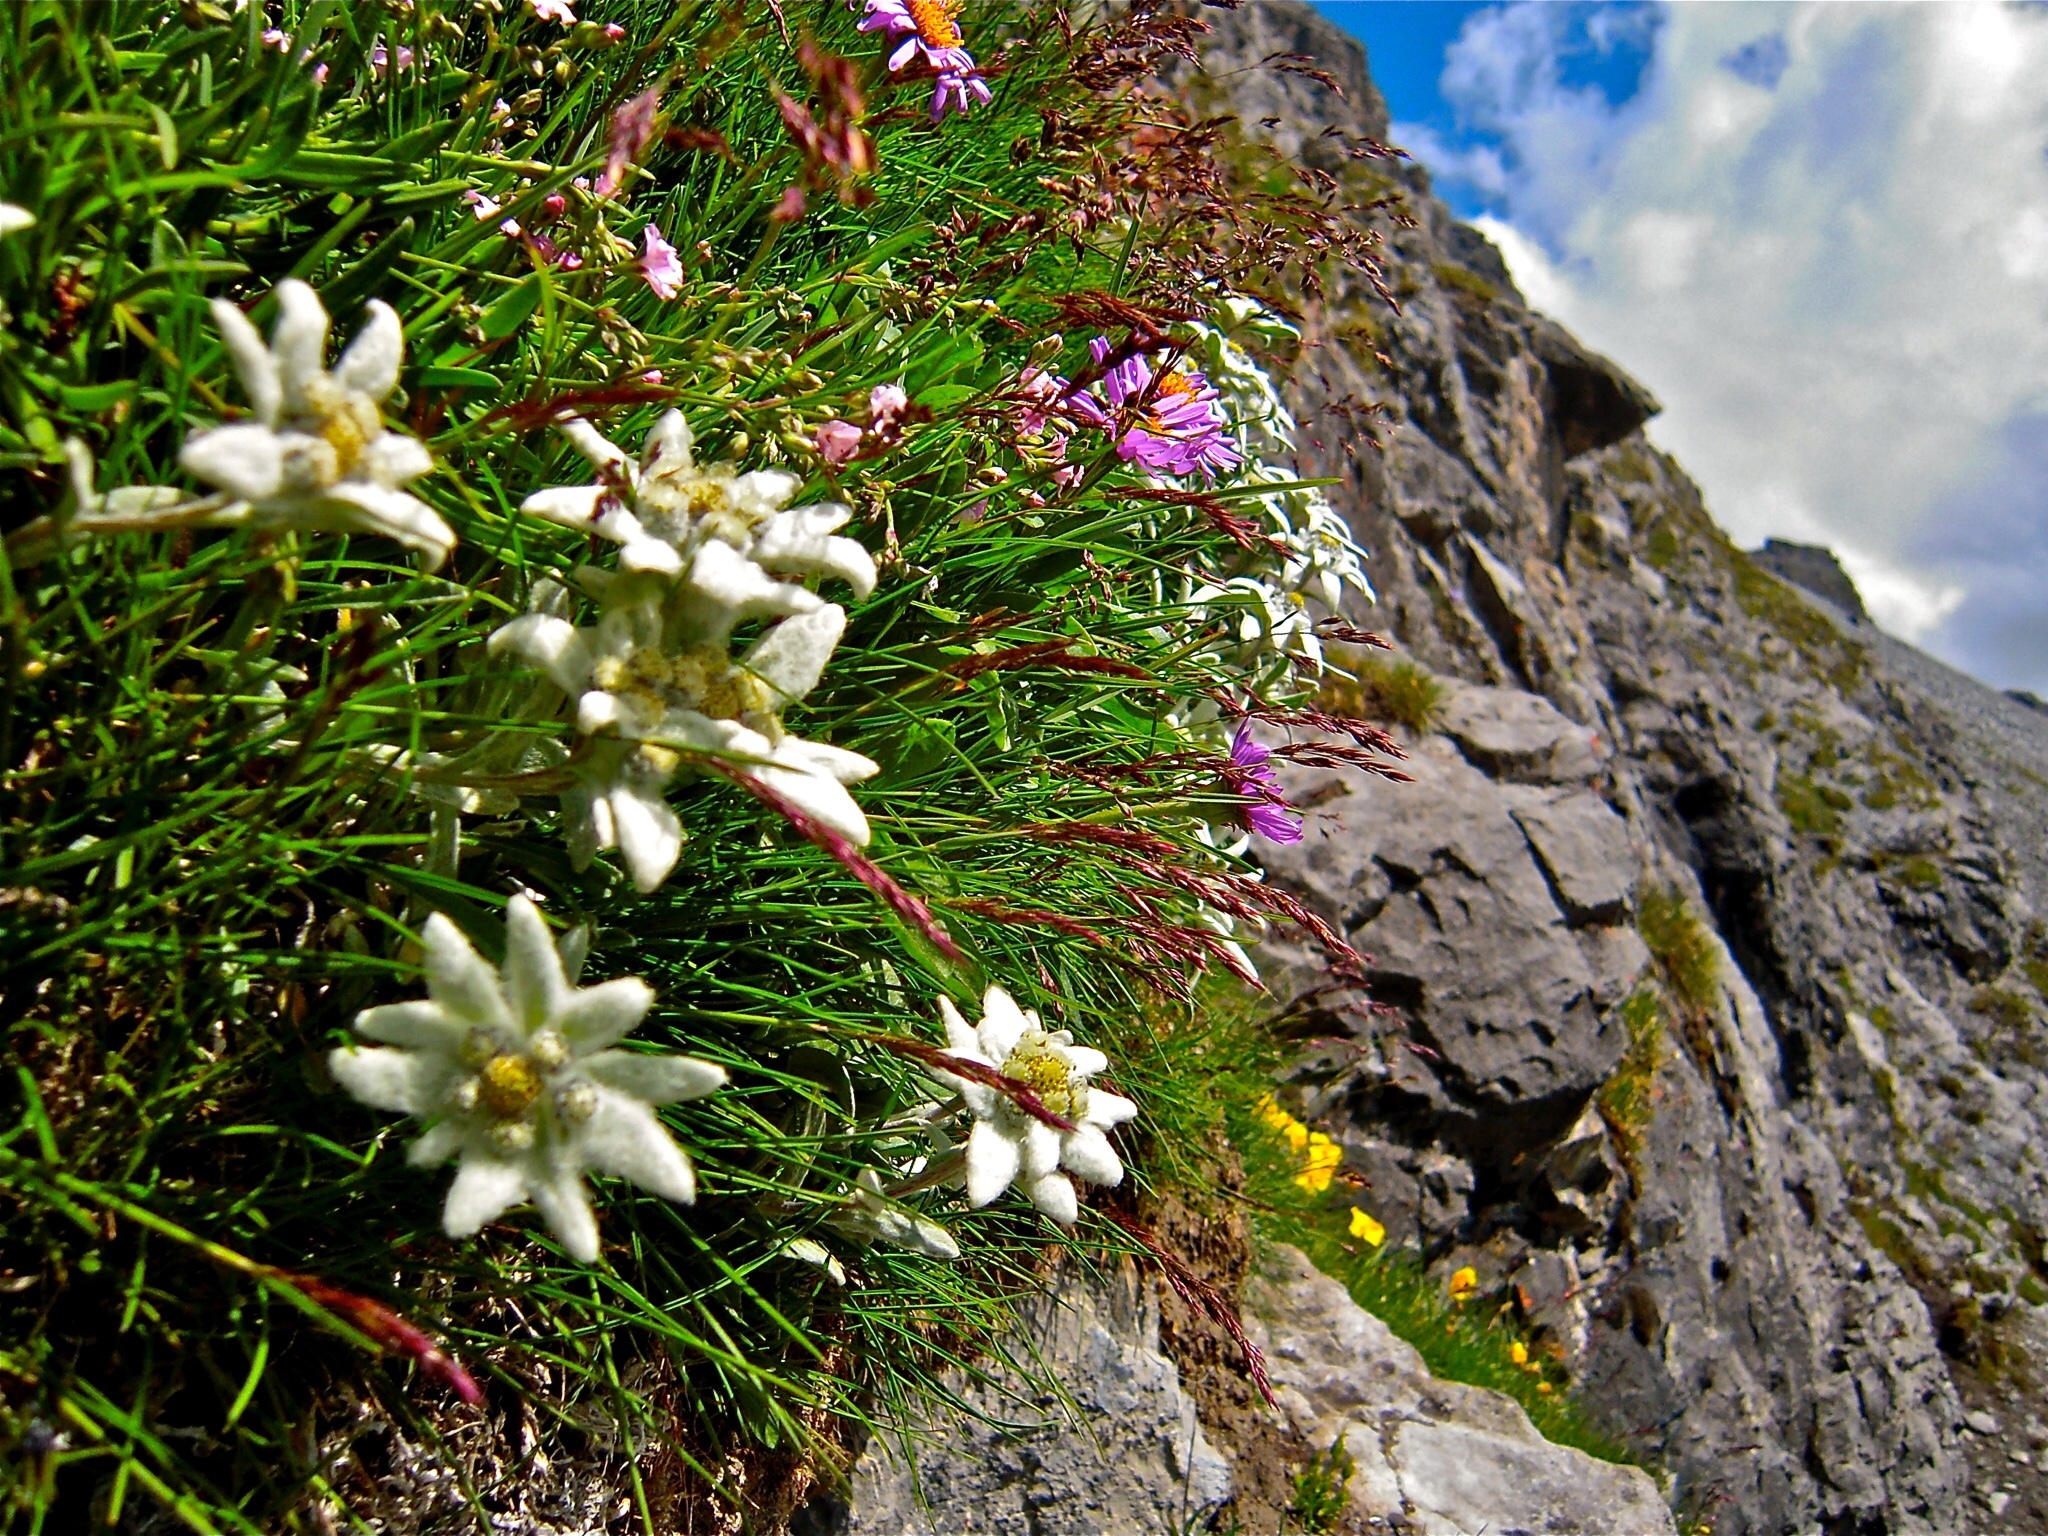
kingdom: Plantae
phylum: Tracheophyta
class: Magnoliopsida
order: Asterales
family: Asteraceae
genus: Leontopodium
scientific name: Leontopodium nivale
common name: Edelweiss
